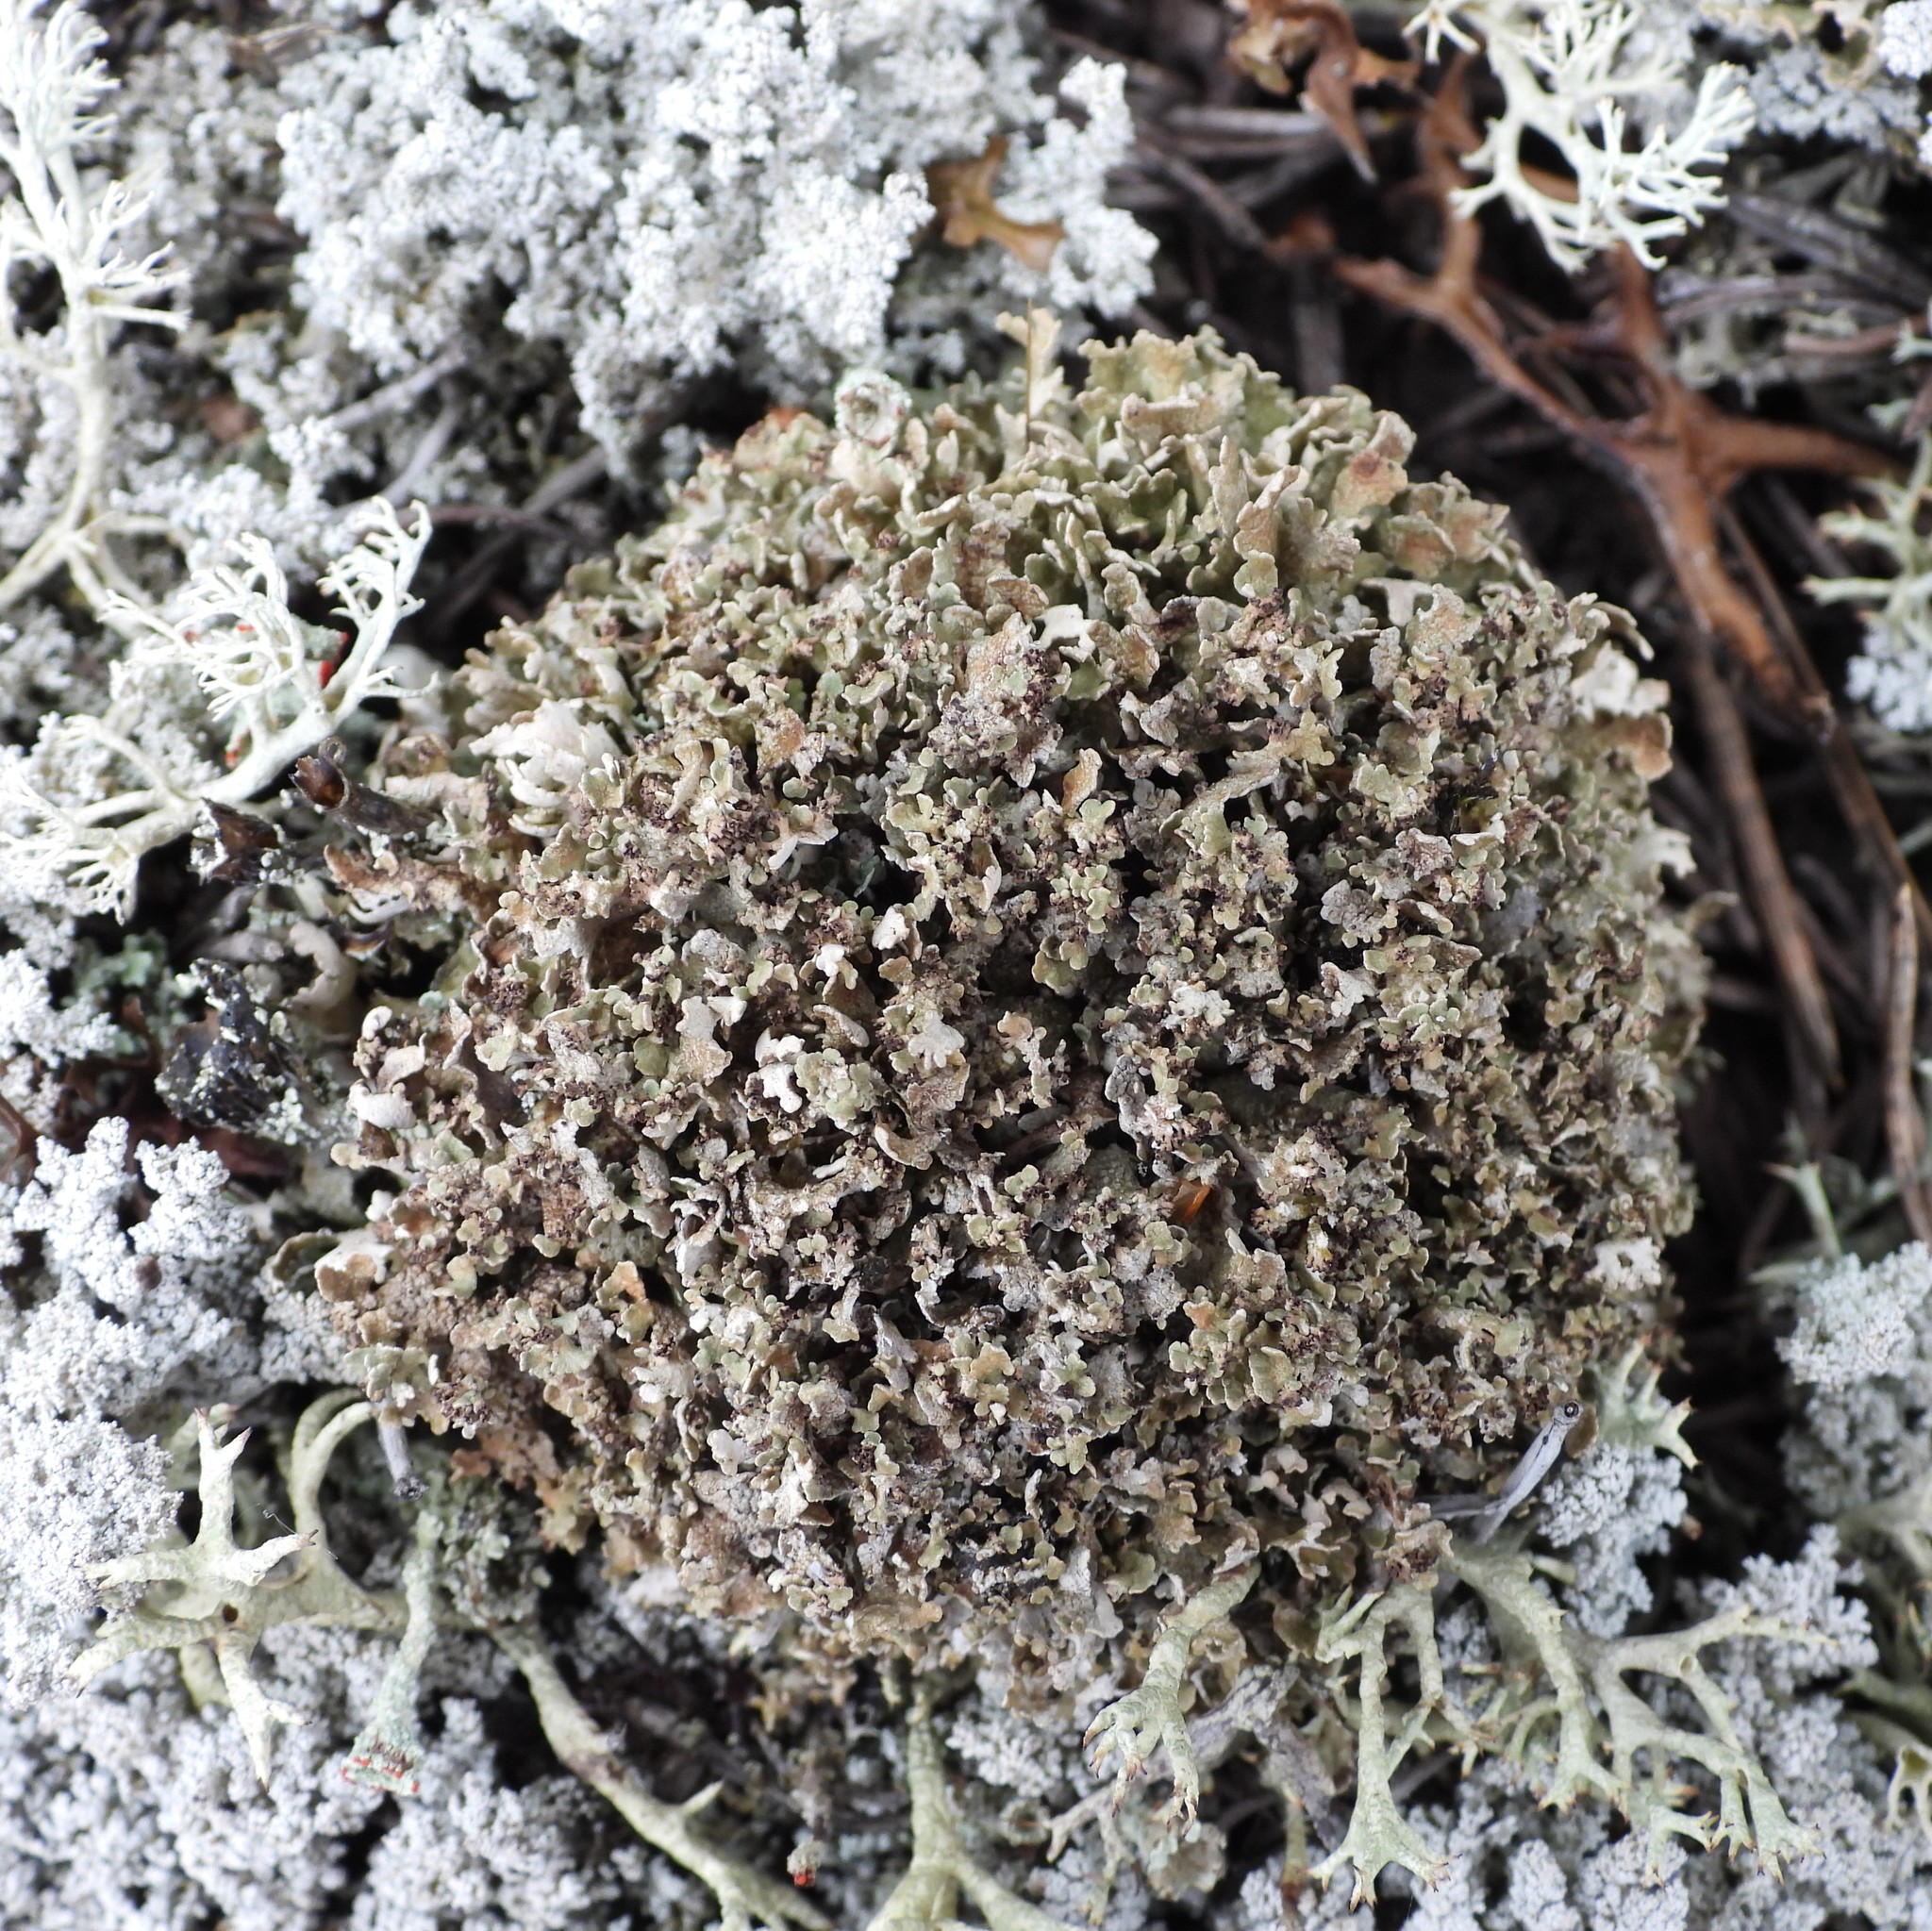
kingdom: Fungi
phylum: Ascomycota
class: Lecanoromycetes
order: Lecanorales
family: Cladoniaceae
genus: Cladonia
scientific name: Cladonia strepsilis
